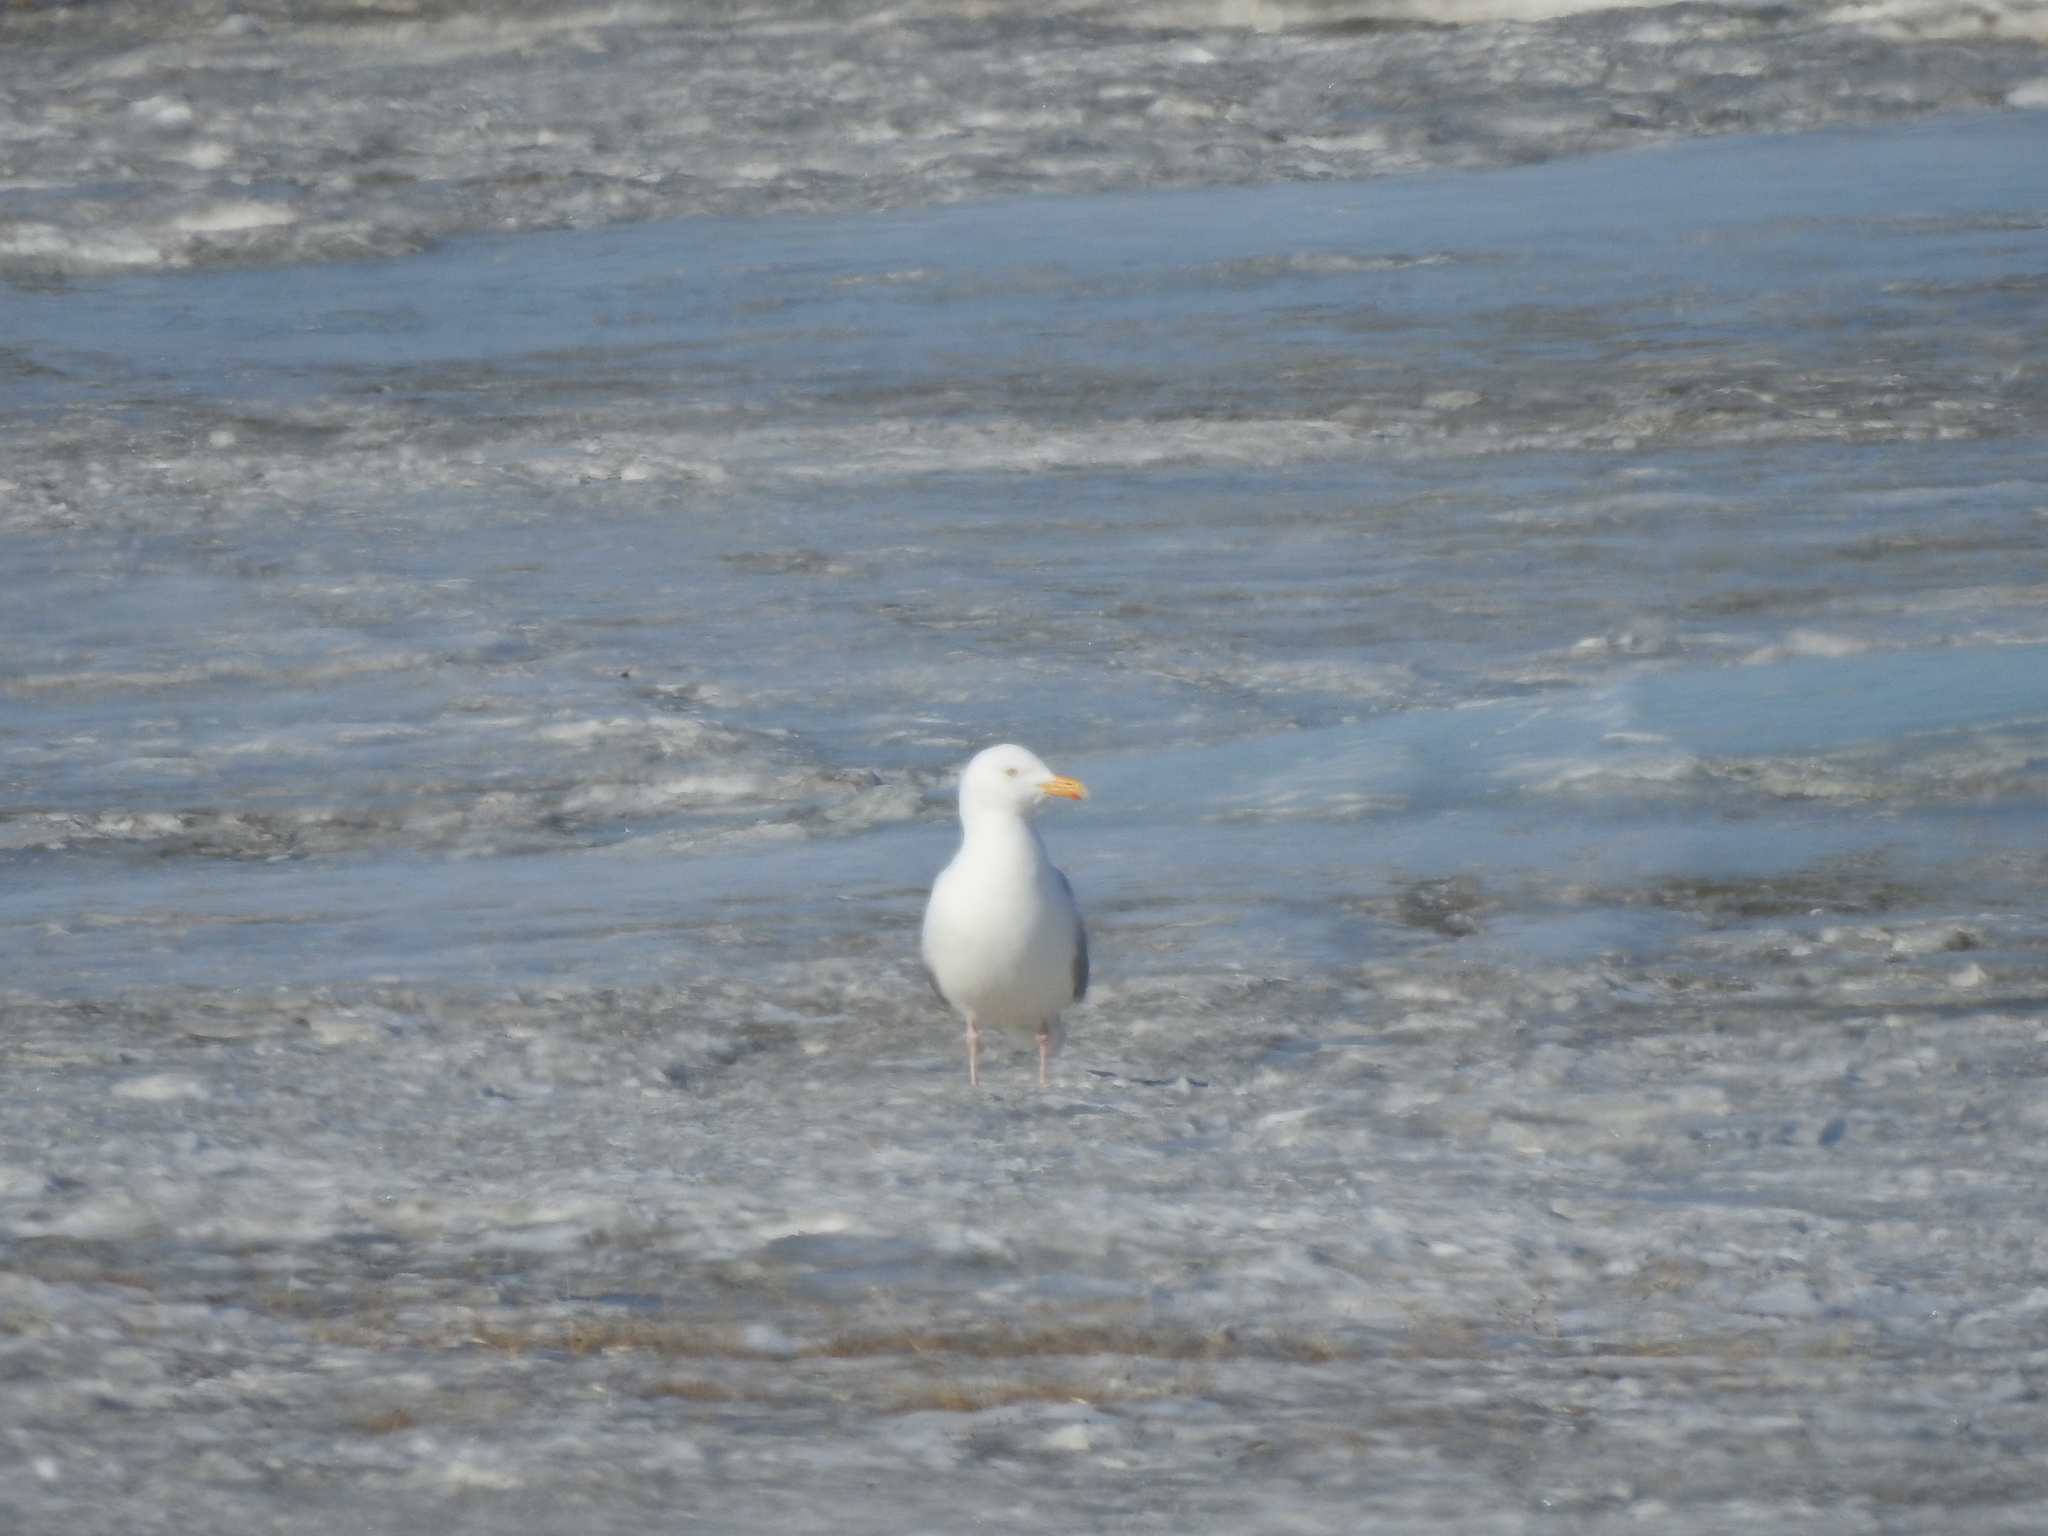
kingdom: Animalia
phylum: Chordata
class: Aves
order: Charadriiformes
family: Laridae
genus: Larus
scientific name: Larus hyperboreus
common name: Glaucous gull
